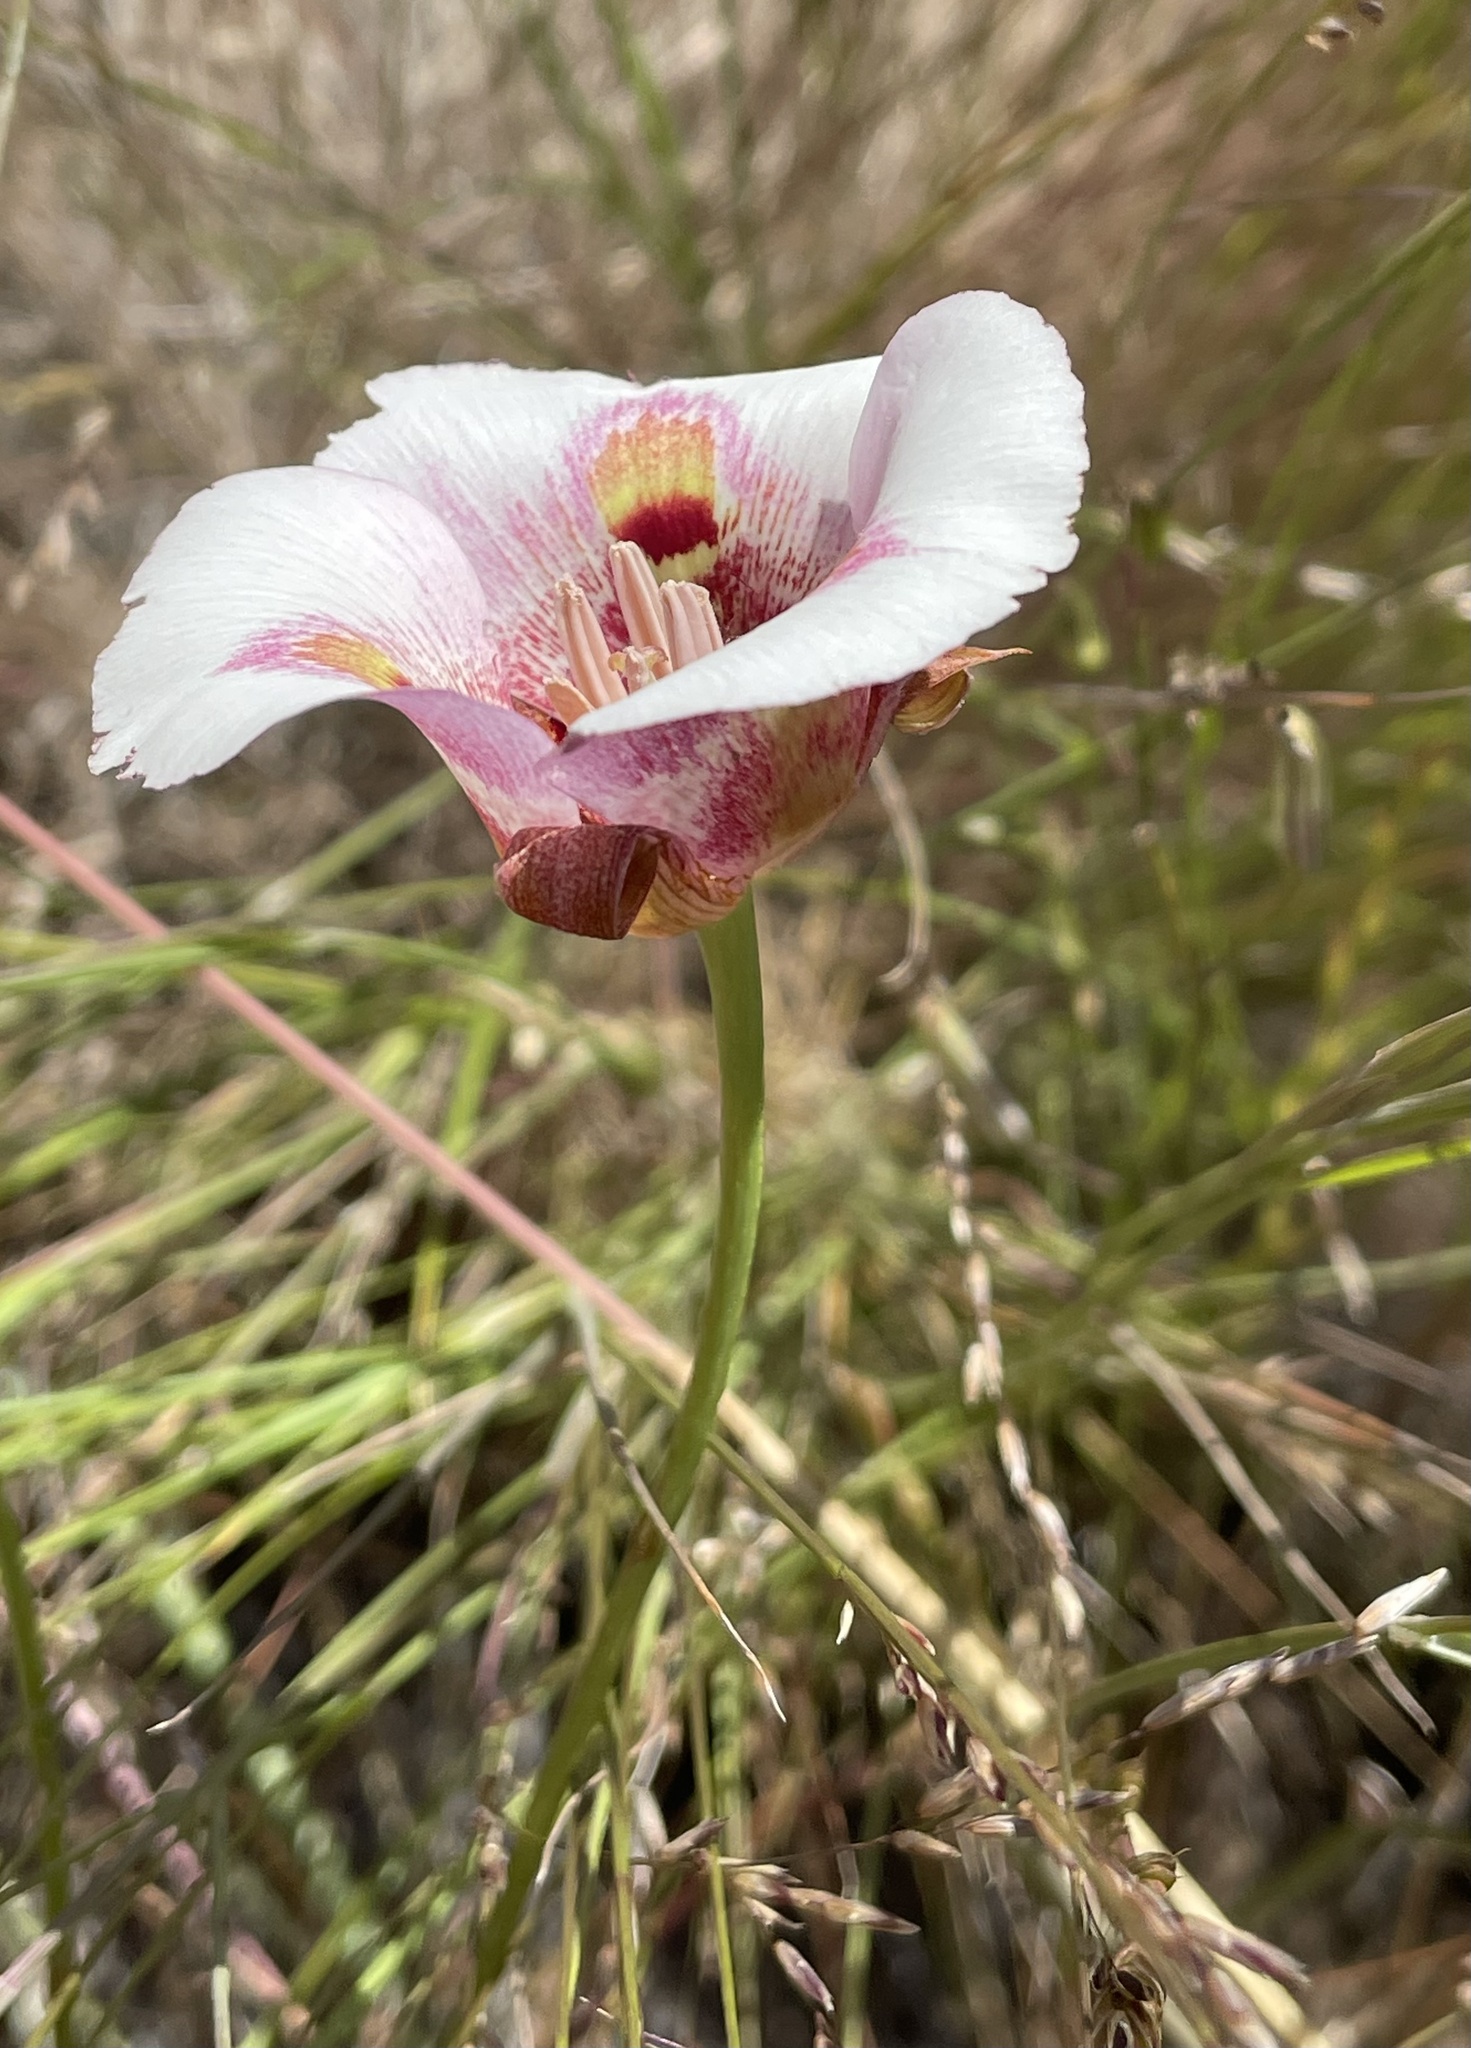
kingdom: Plantae
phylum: Tracheophyta
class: Liliopsida
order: Liliales
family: Liliaceae
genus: Calochortus
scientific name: Calochortus argillosus
